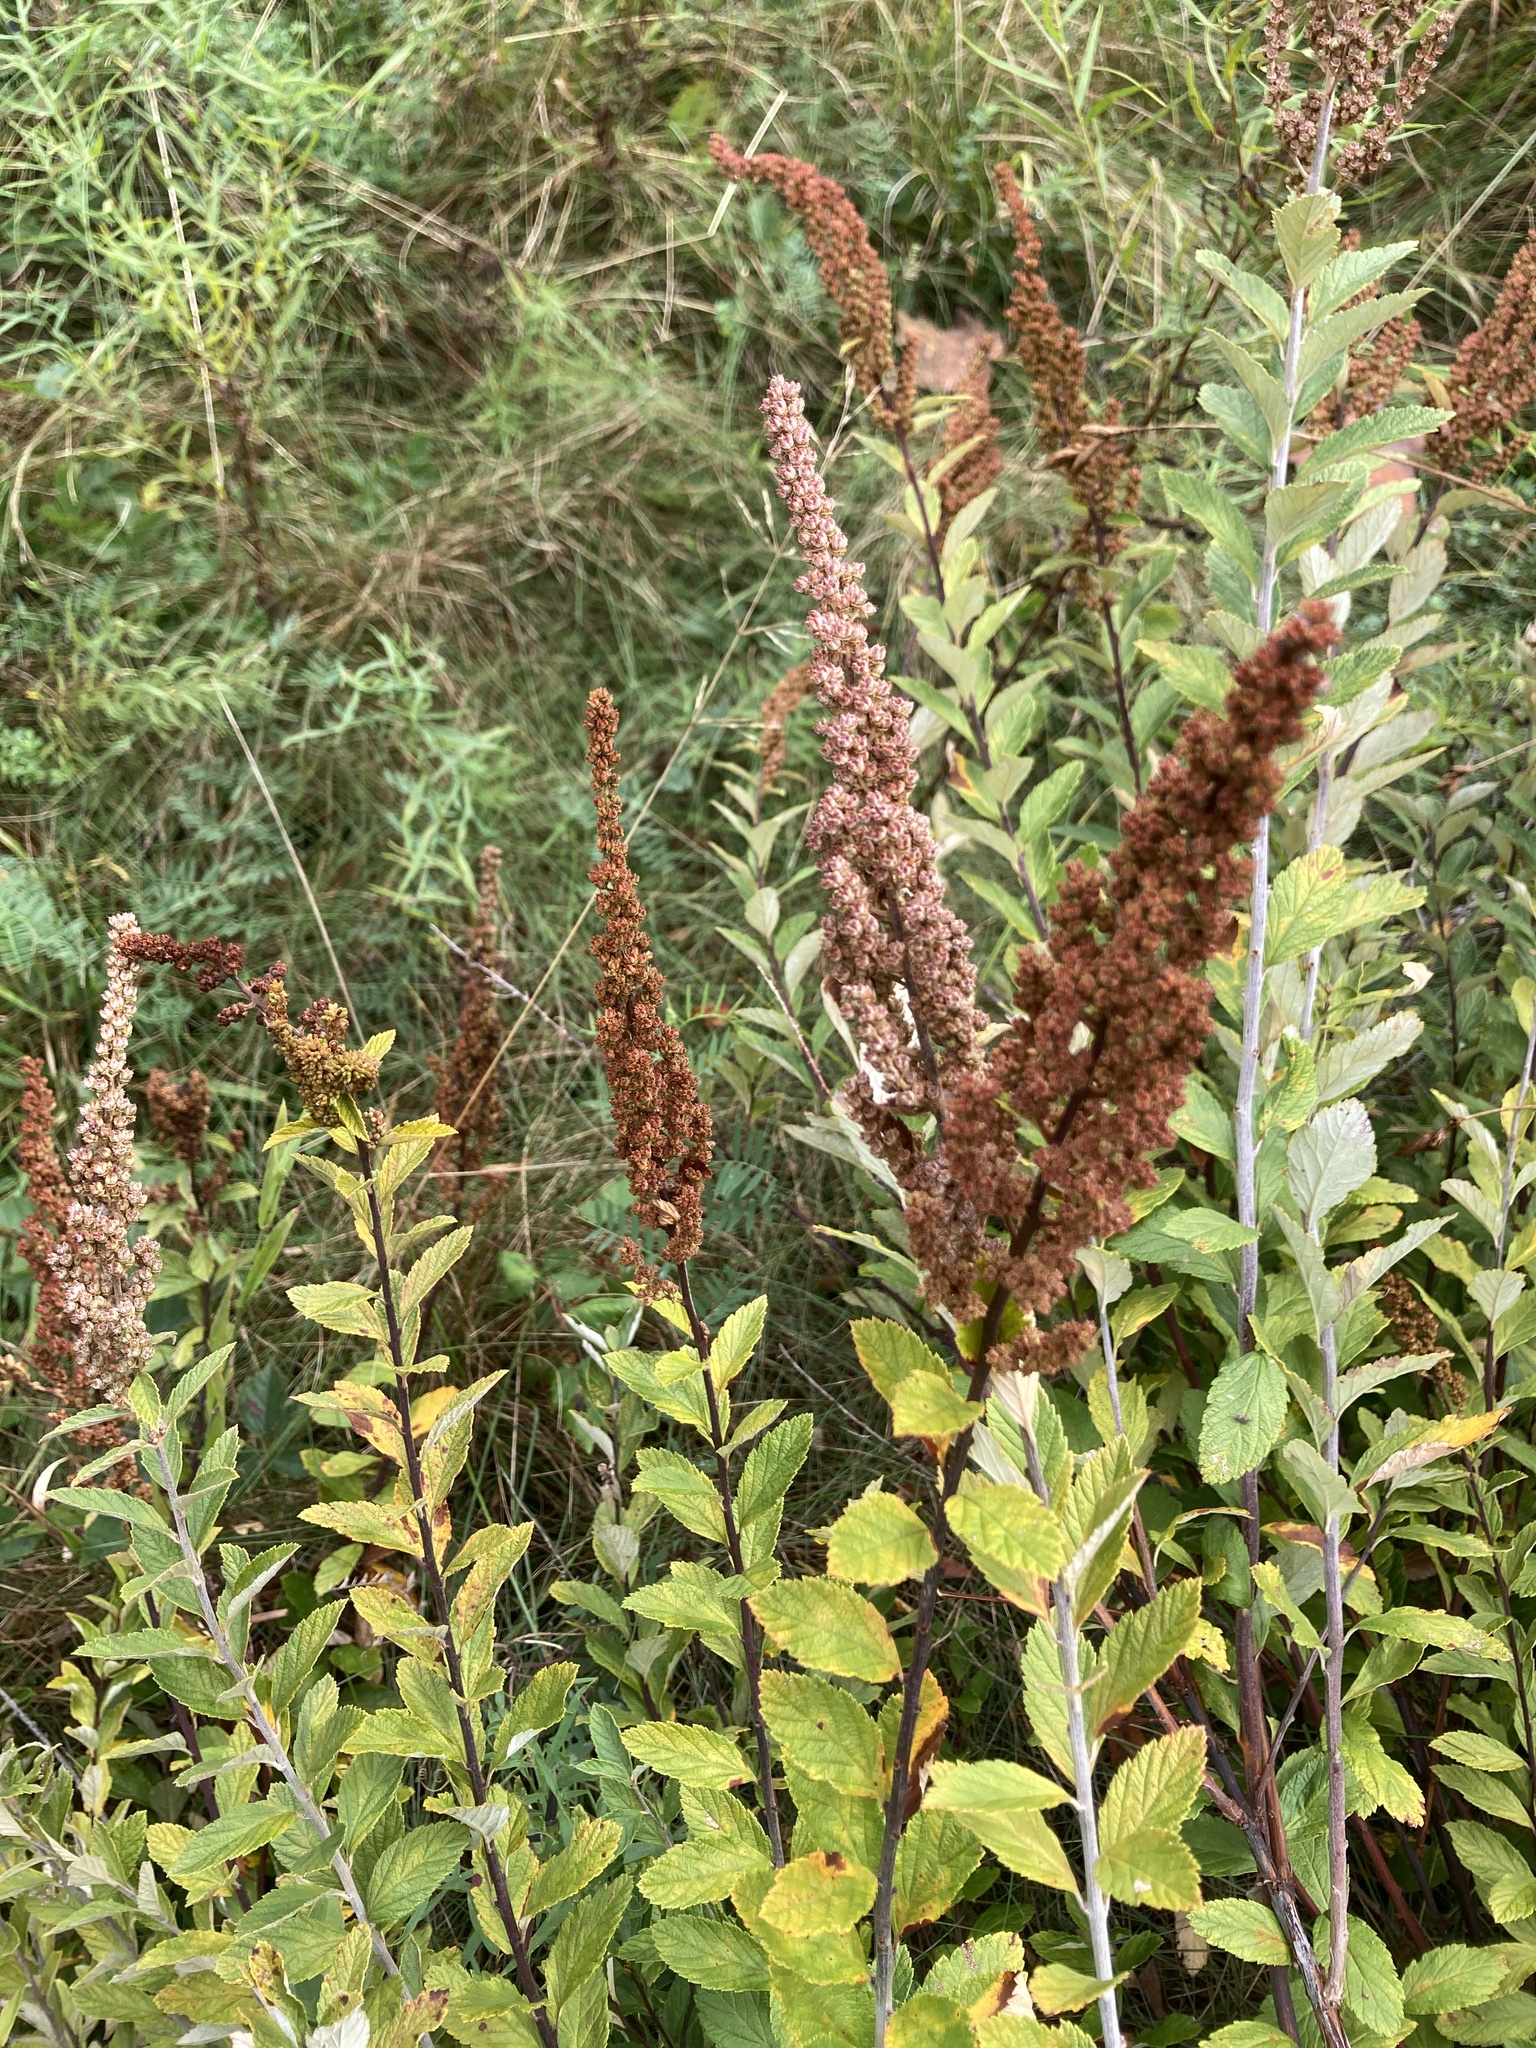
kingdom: Plantae
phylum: Tracheophyta
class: Magnoliopsida
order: Rosales
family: Rosaceae
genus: Spiraea
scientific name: Spiraea tomentosa
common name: Hardhack
